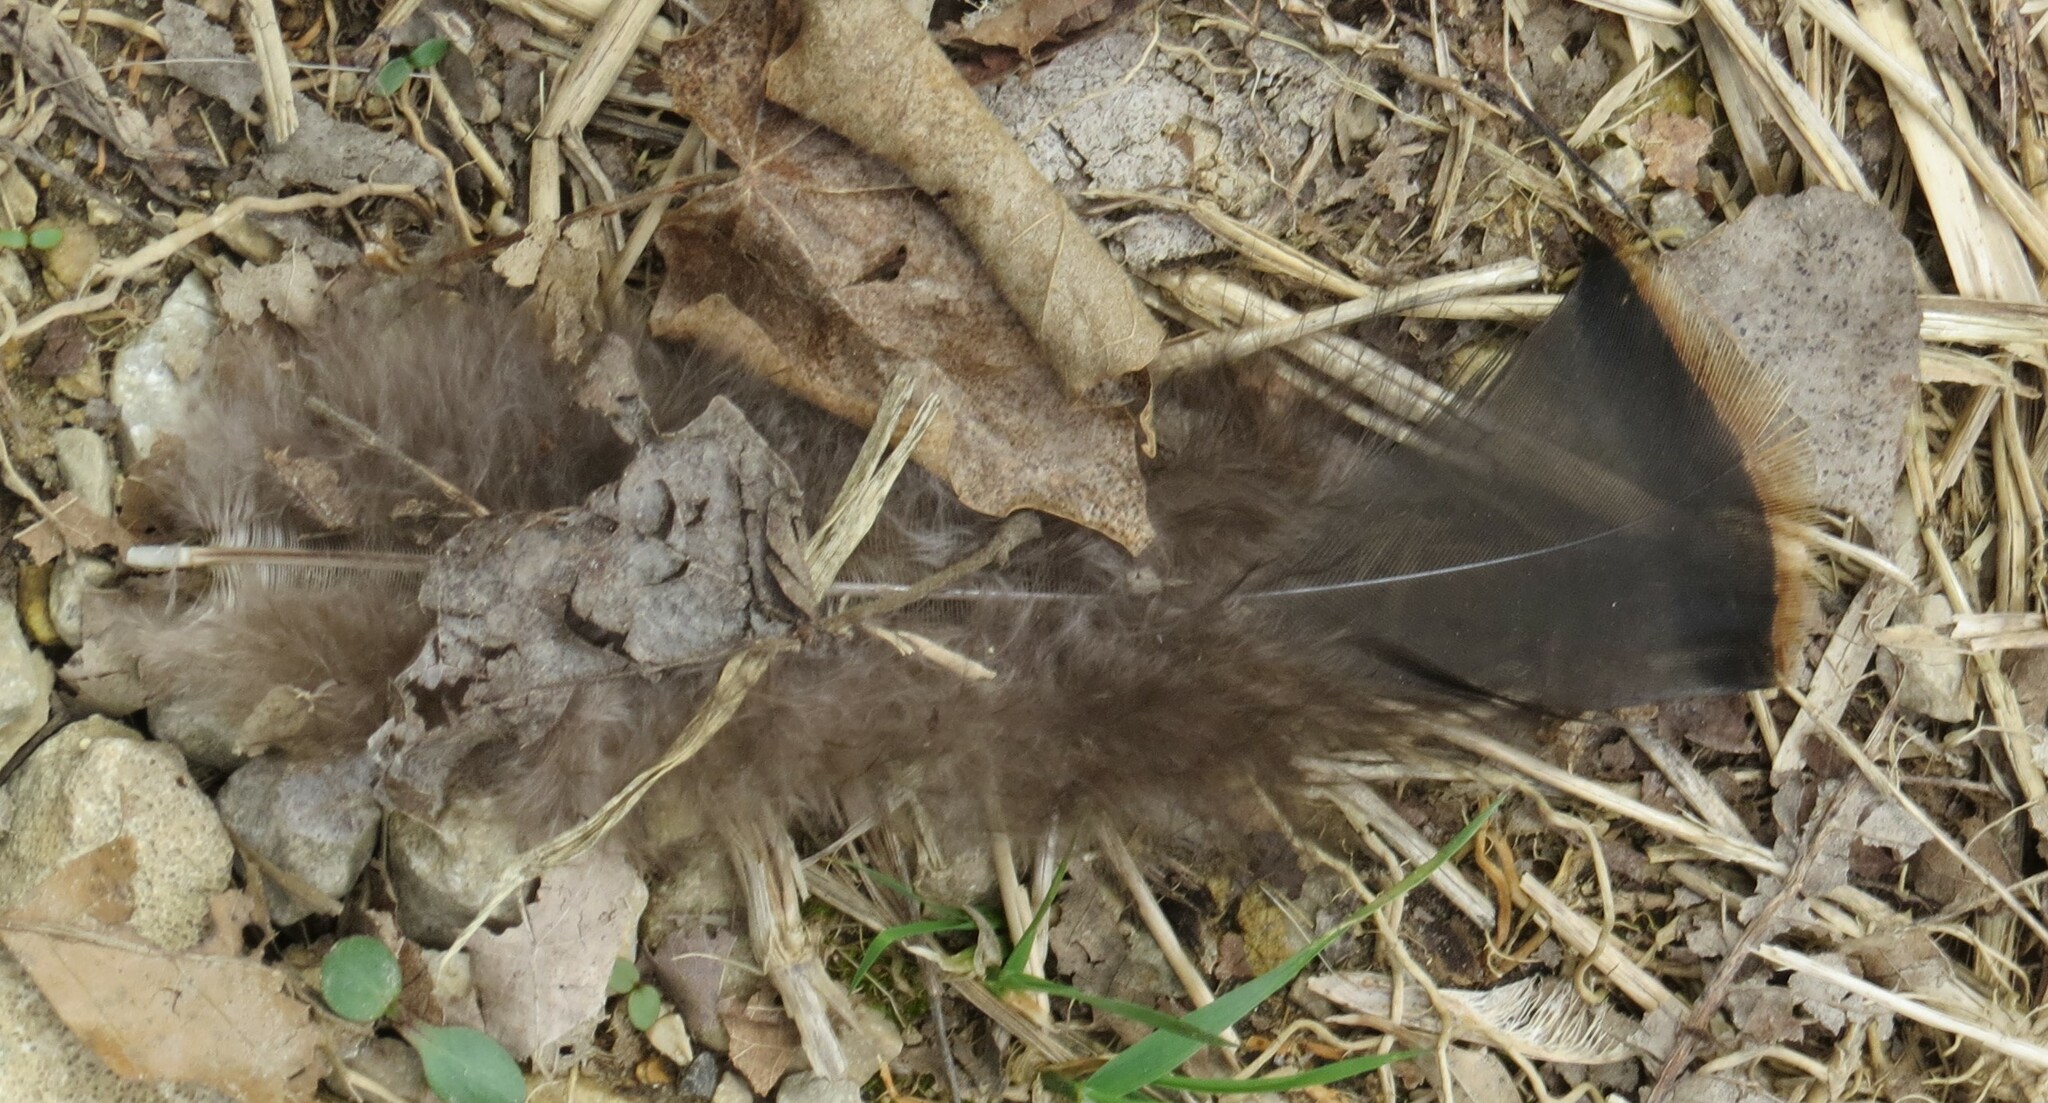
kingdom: Animalia
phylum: Chordata
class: Aves
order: Galliformes
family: Phasianidae
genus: Meleagris
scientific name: Meleagris gallopavo
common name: Wild turkey
